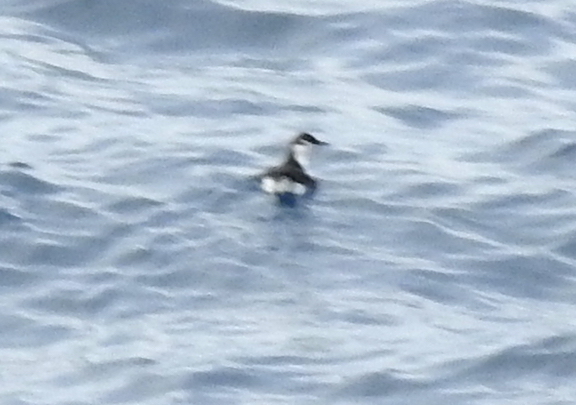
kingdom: Animalia
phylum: Chordata
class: Aves
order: Charadriiformes
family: Alcidae
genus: Synthliboramphus
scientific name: Synthliboramphus hypoleucus
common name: Guadalupe murrelet
